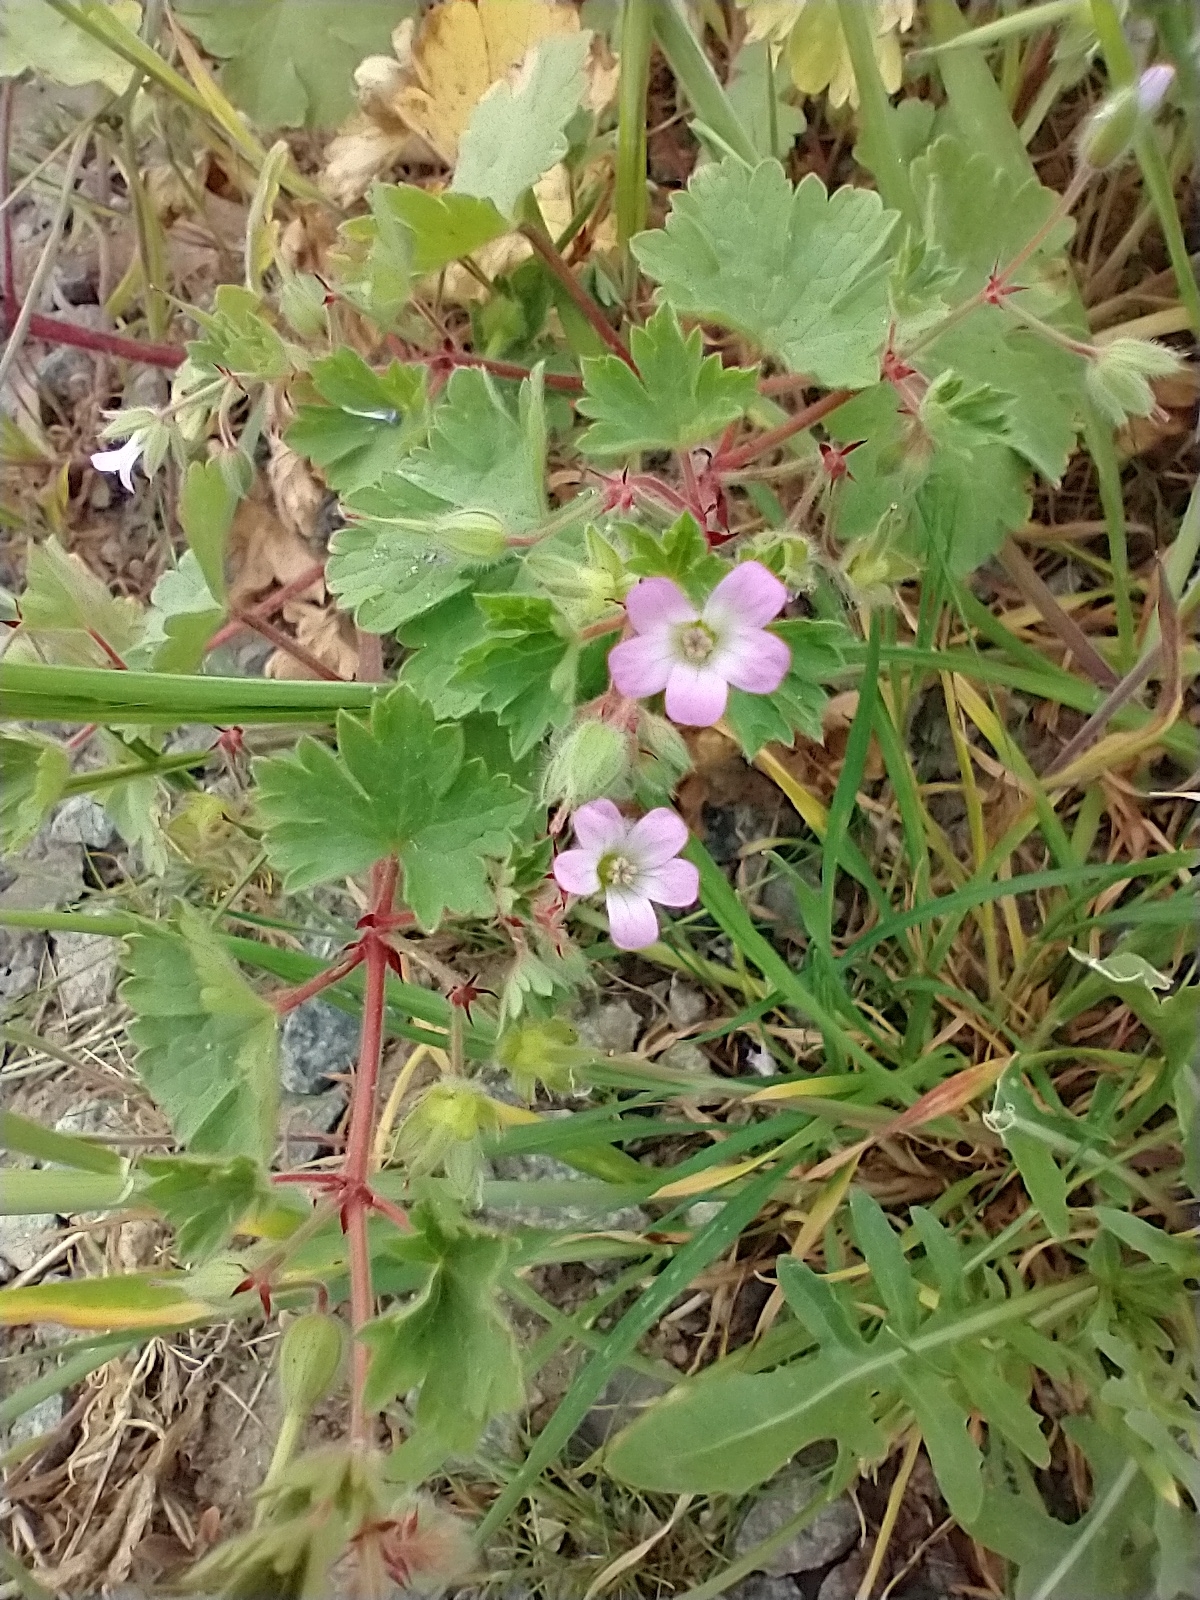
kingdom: Plantae
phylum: Tracheophyta
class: Magnoliopsida
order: Geraniales
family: Geraniaceae
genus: Geranium
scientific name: Geranium rotundifolium
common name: Round-leaved crane's-bill
